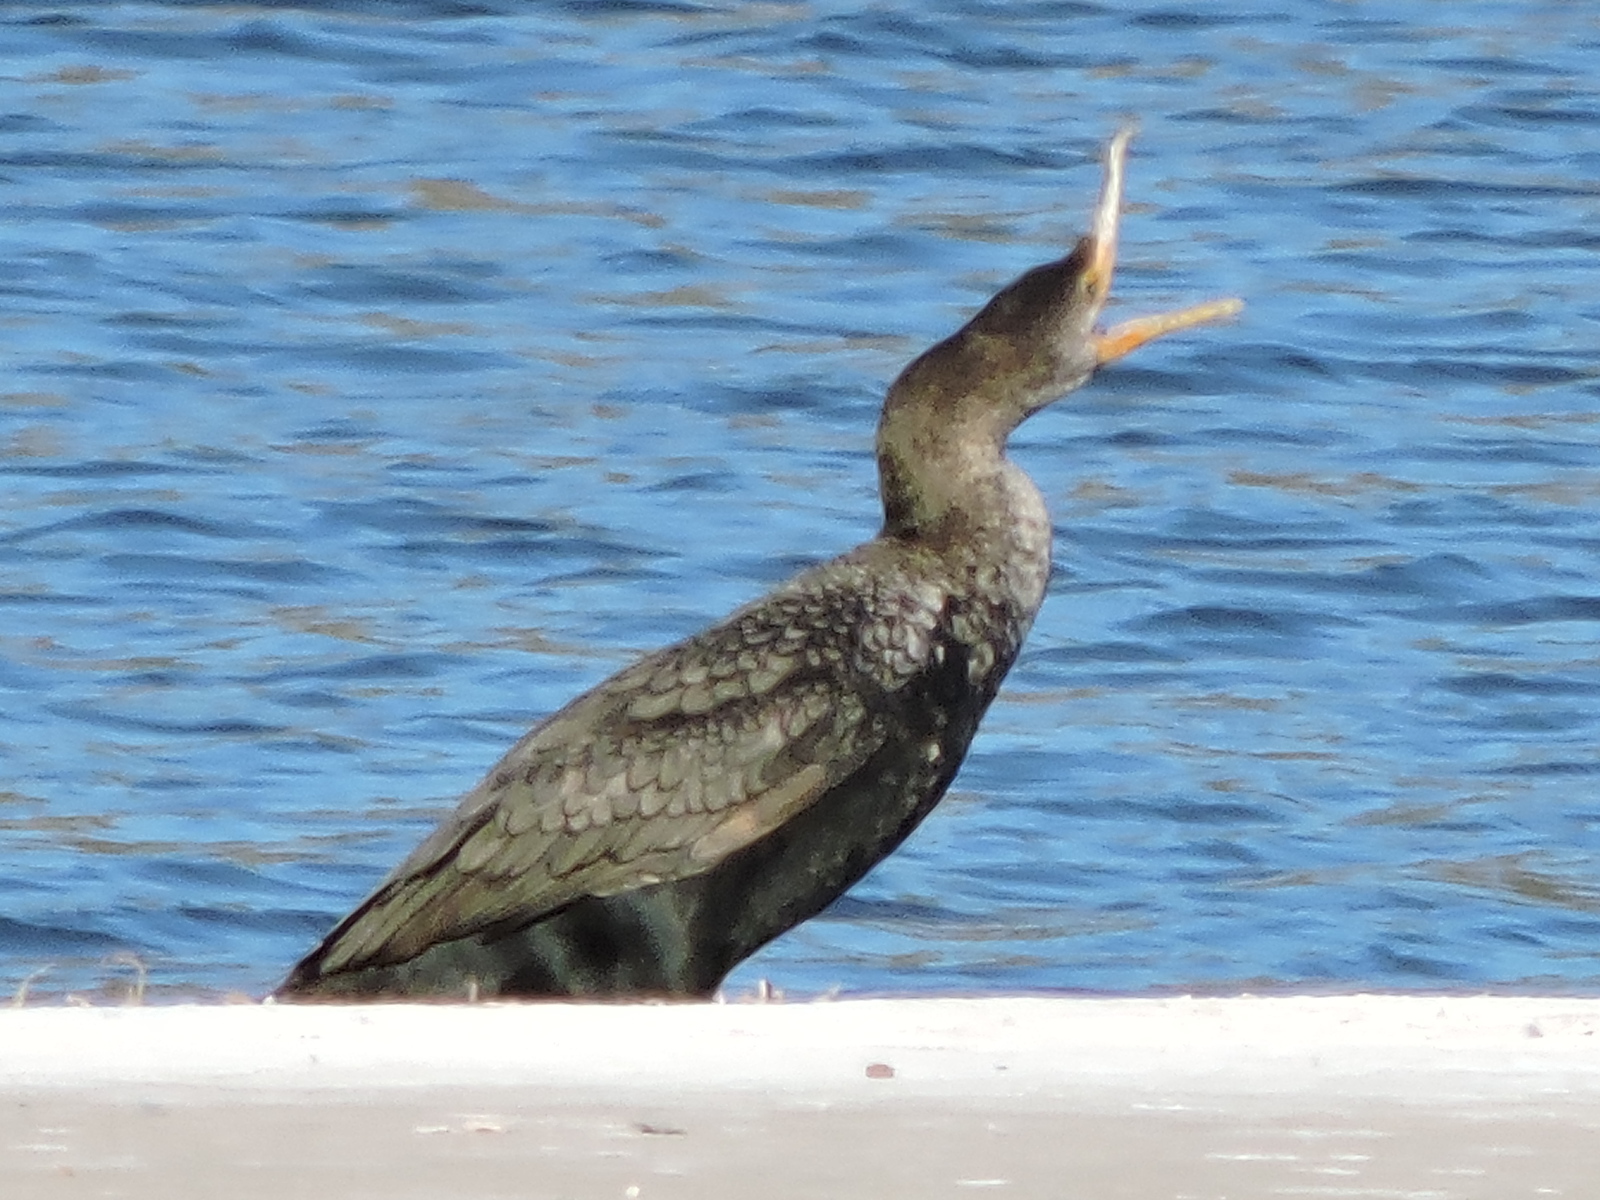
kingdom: Animalia
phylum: Chordata
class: Aves
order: Suliformes
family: Phalacrocoracidae
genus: Phalacrocorax
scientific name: Phalacrocorax auritus
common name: Double-crested cormorant
